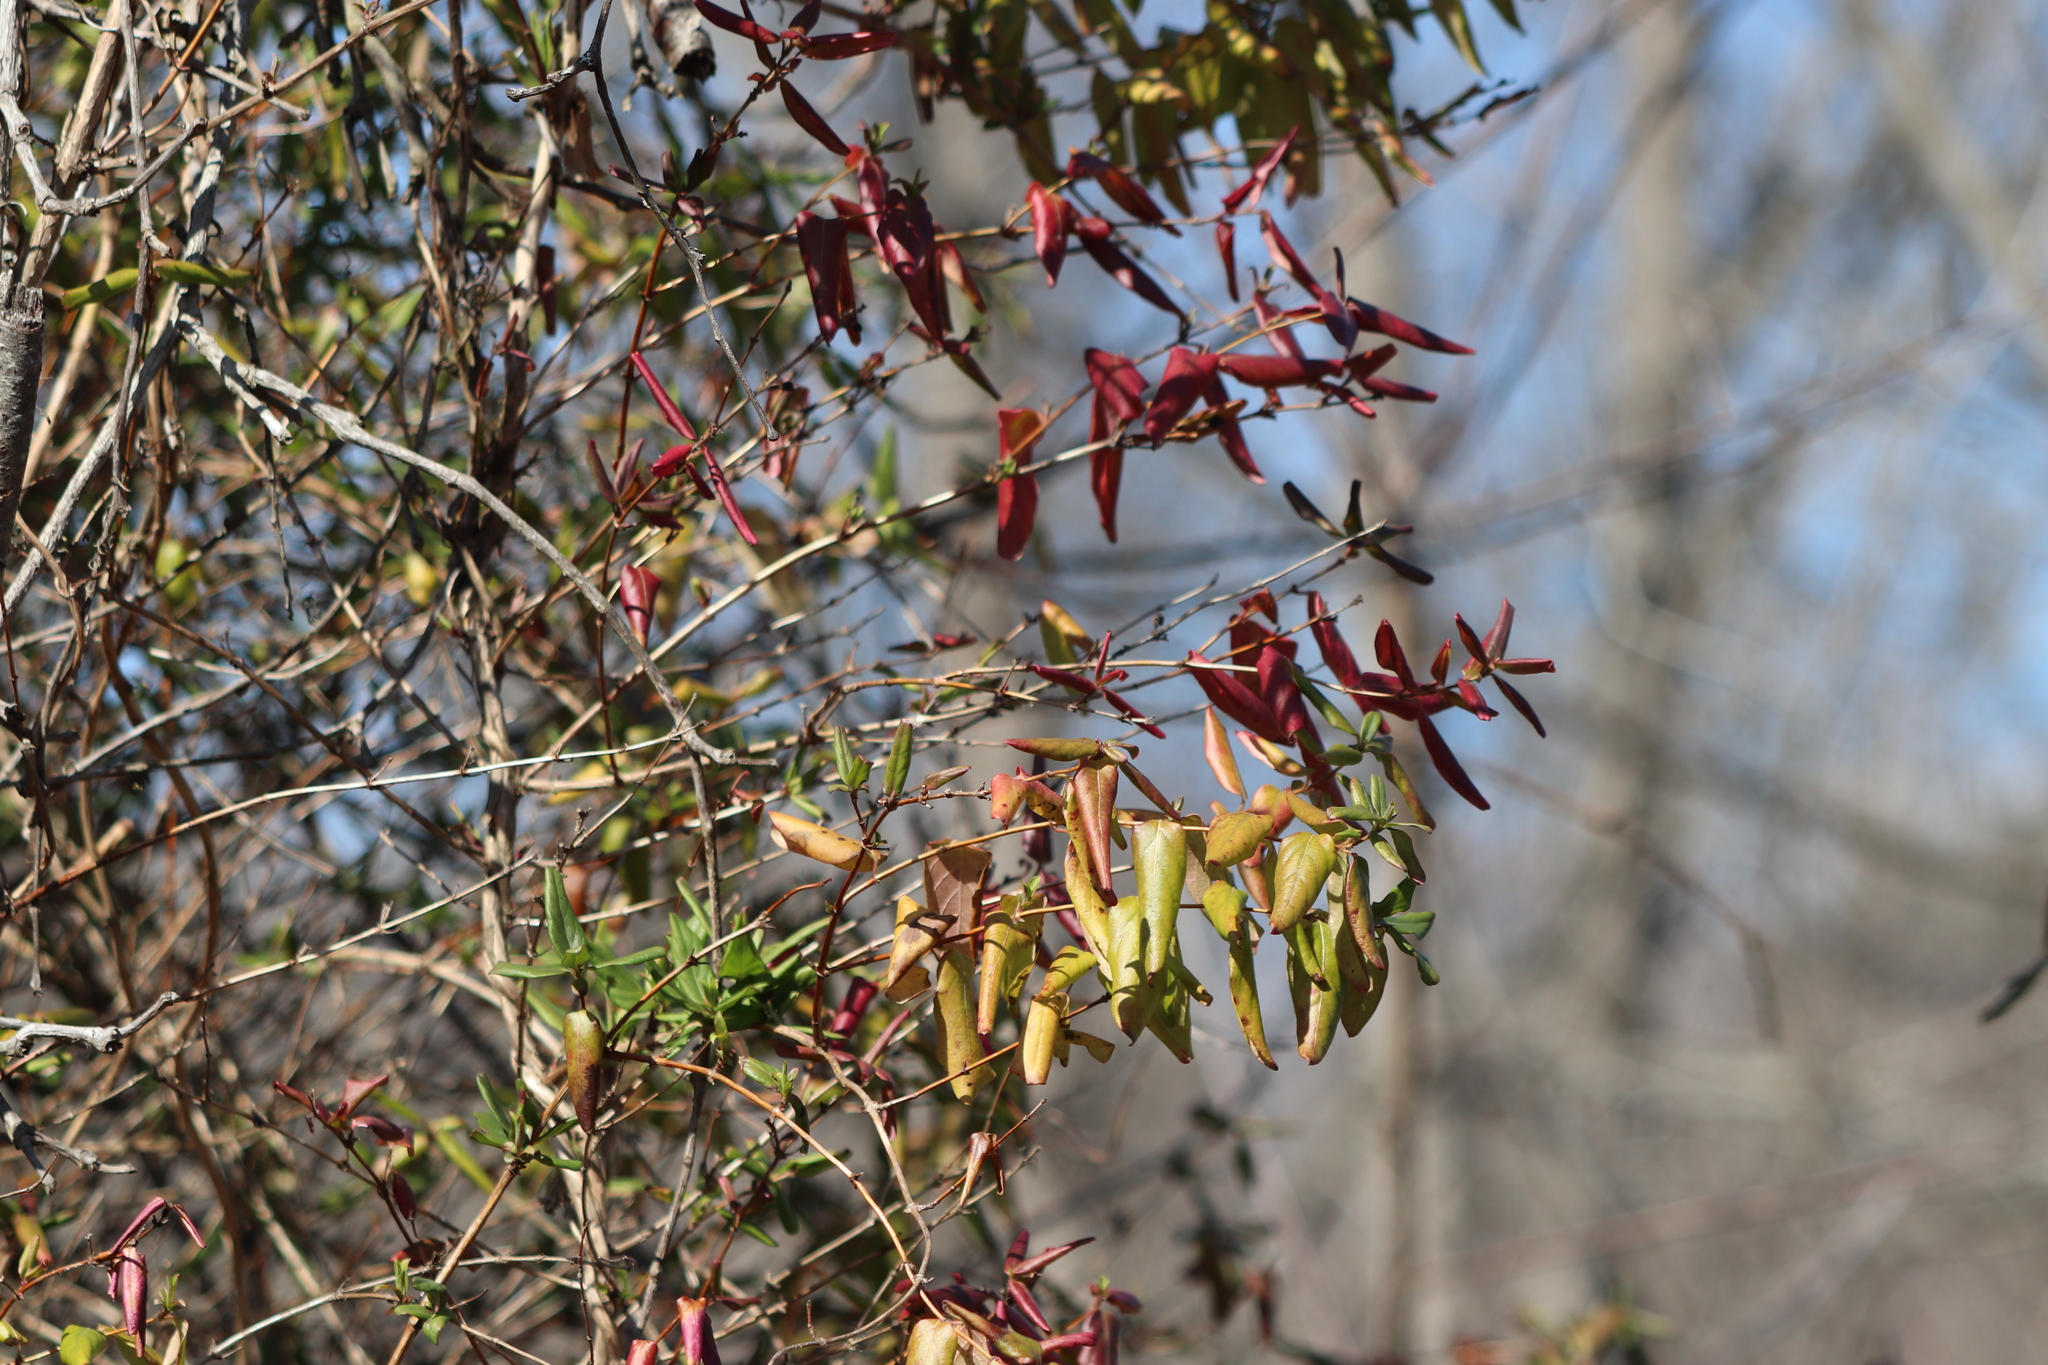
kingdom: Plantae
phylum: Tracheophyta
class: Magnoliopsida
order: Dipsacales
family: Caprifoliaceae
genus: Lonicera
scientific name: Lonicera japonica
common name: Japanese honeysuckle
